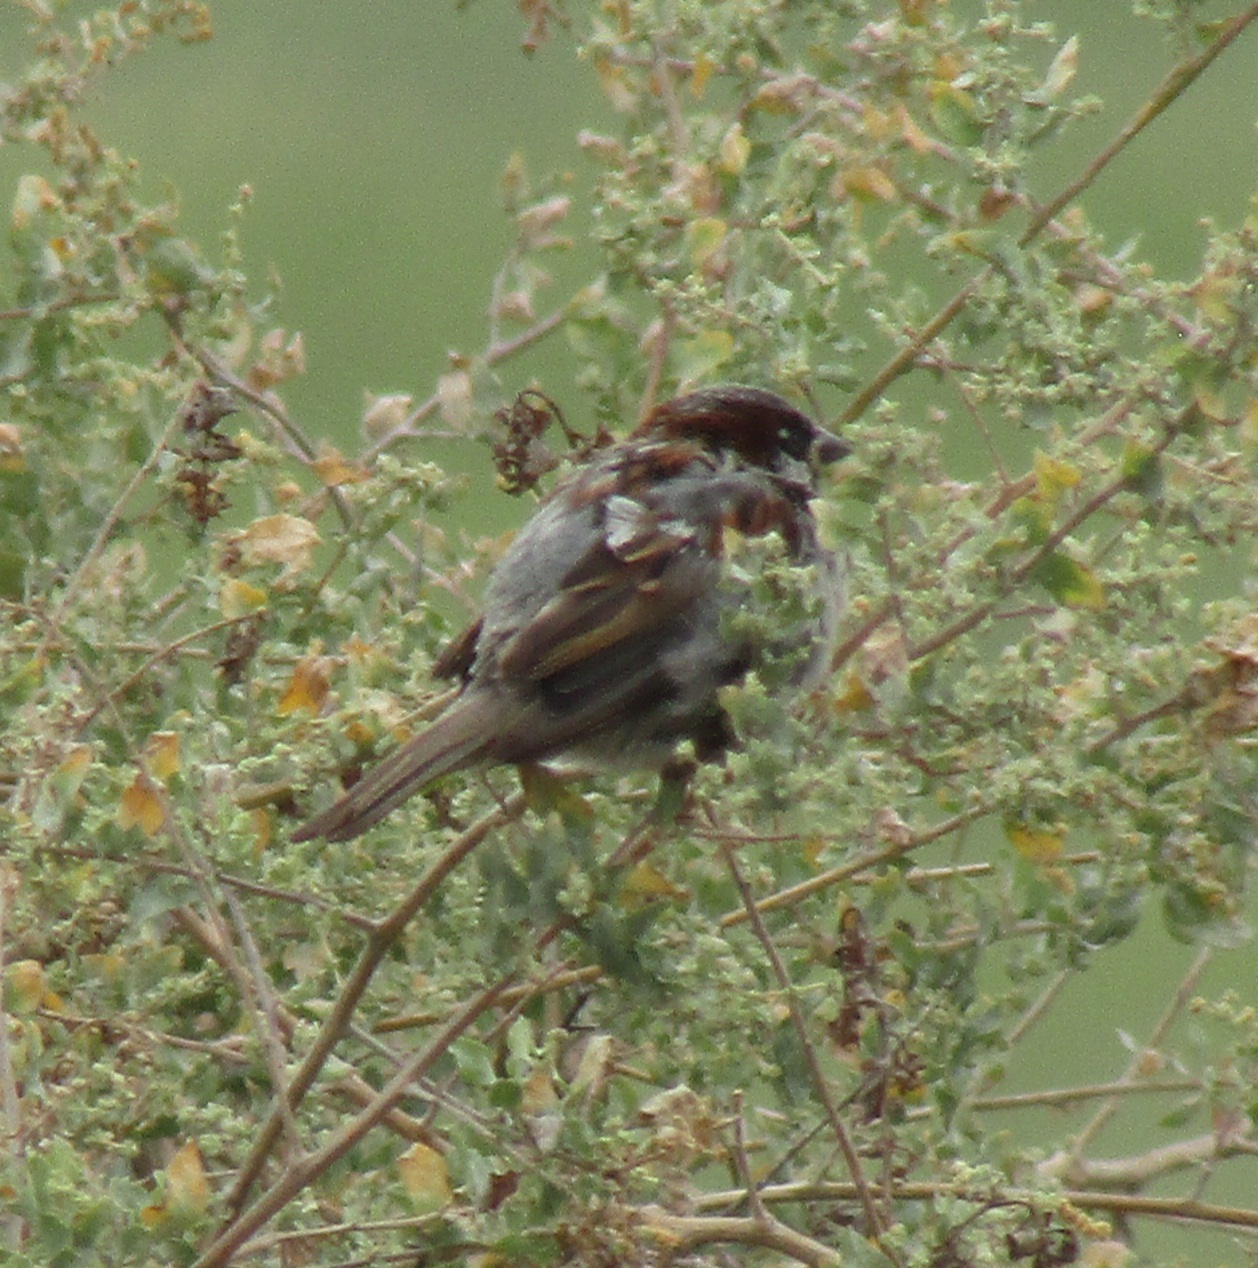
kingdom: Animalia
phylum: Chordata
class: Aves
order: Passeriformes
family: Passeridae
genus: Passer
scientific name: Passer domesticus
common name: House sparrow
